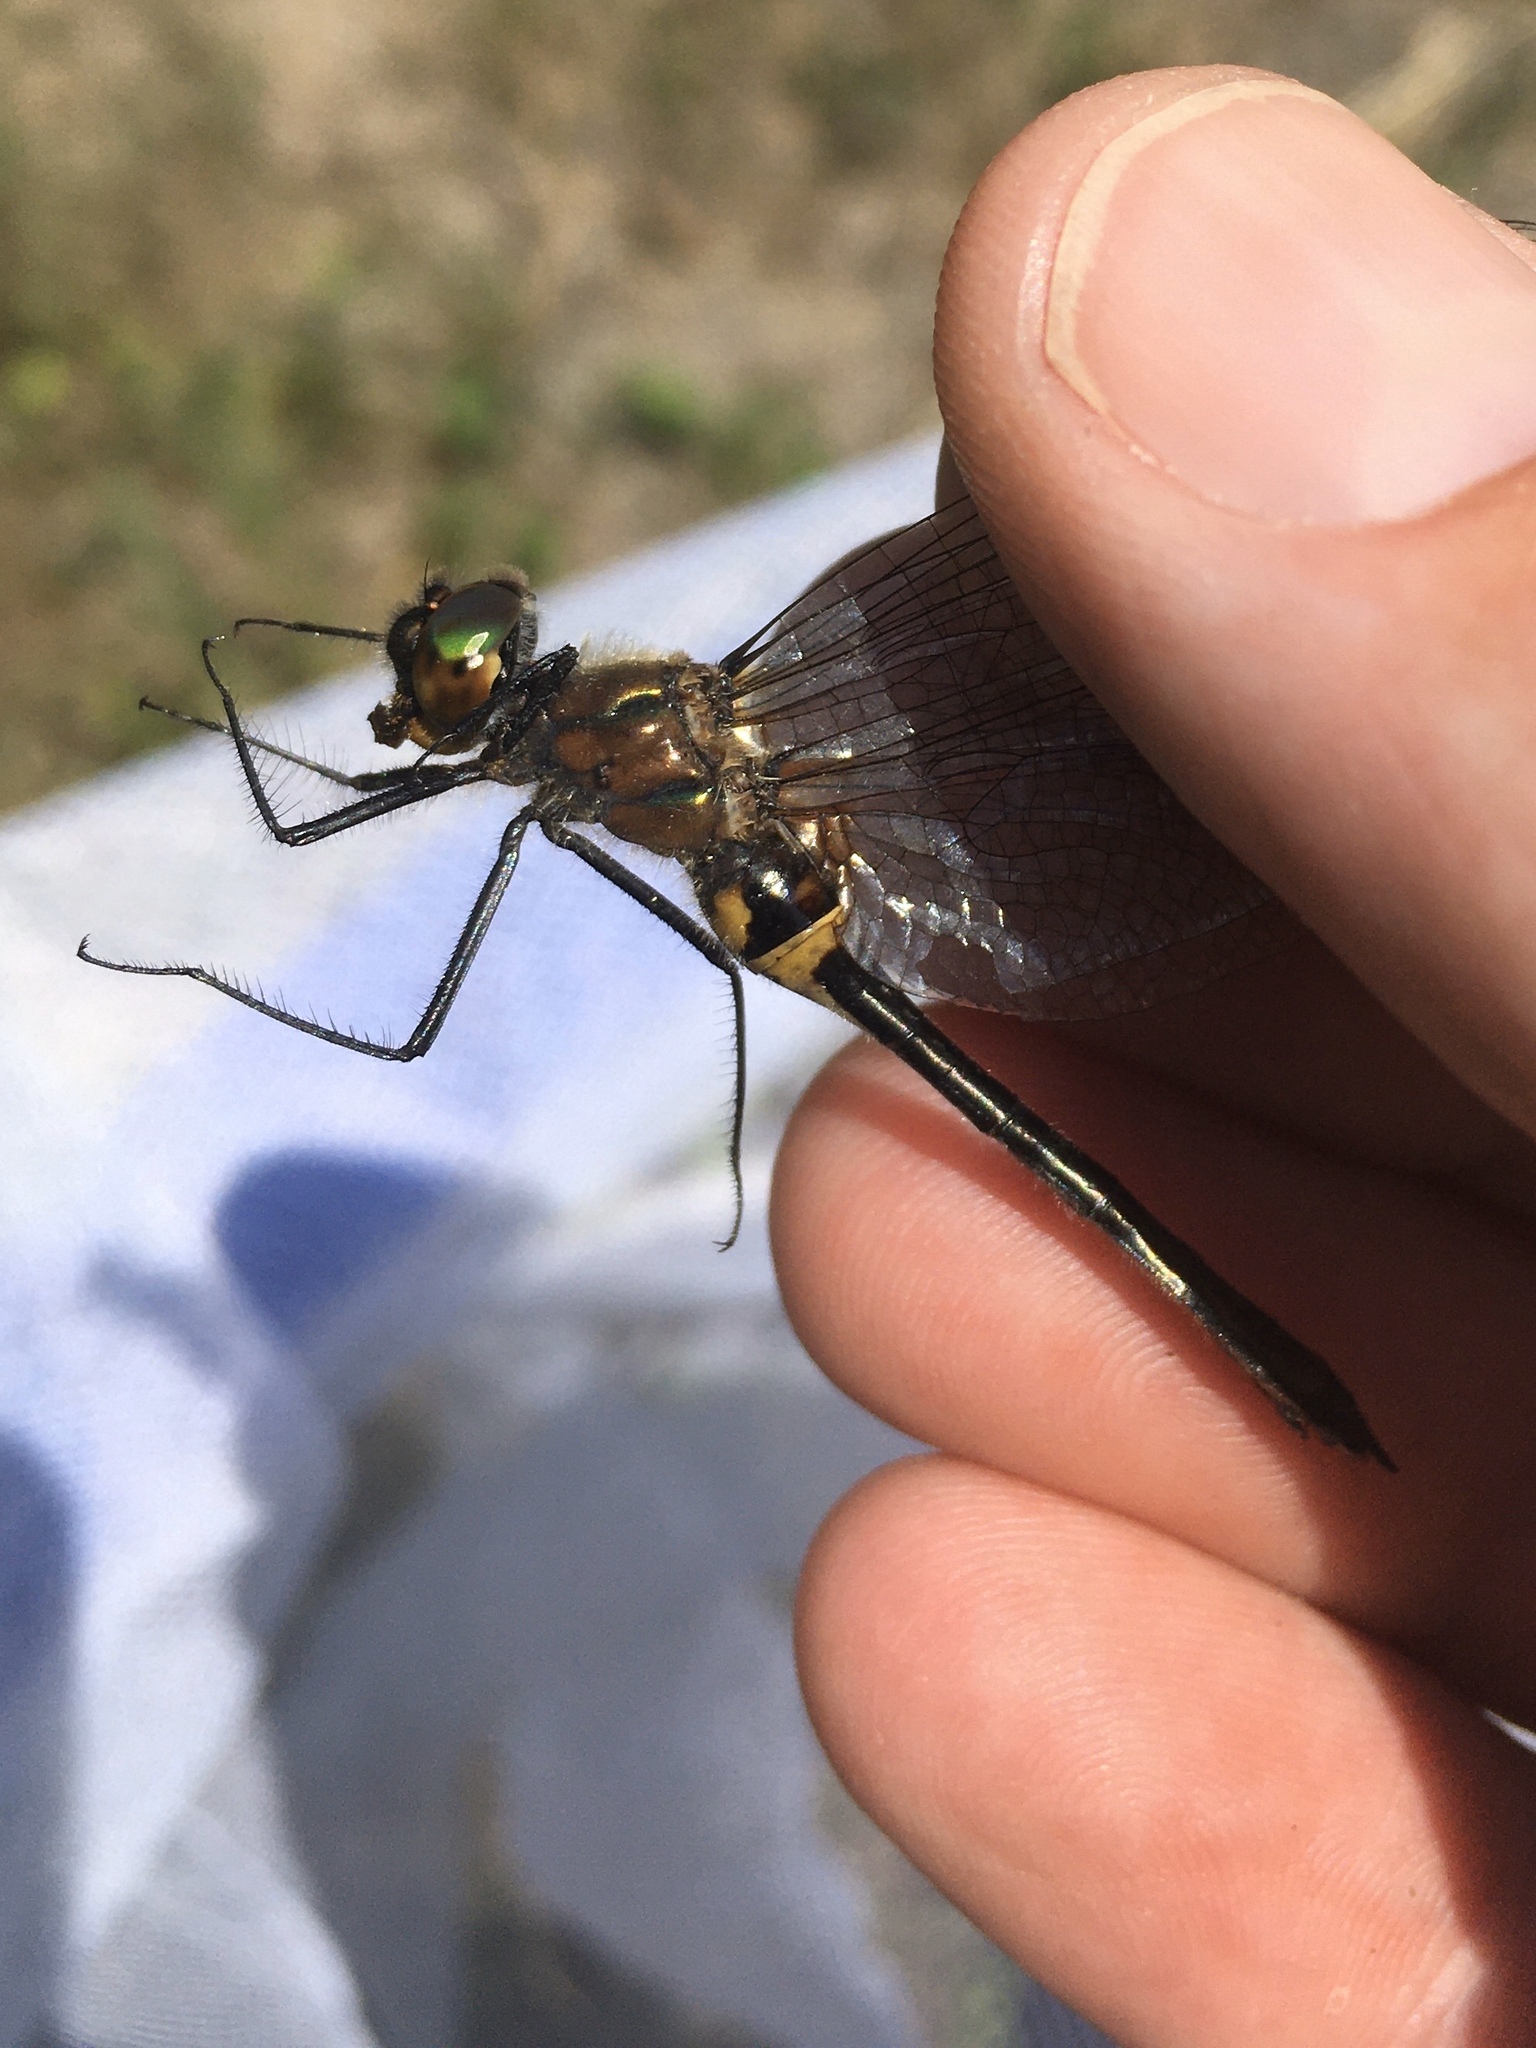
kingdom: Animalia
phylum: Arthropoda
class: Insecta
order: Odonata
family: Corduliidae
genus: Dorocordulia
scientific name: Dorocordulia libera
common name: Racket-tailed emerald
